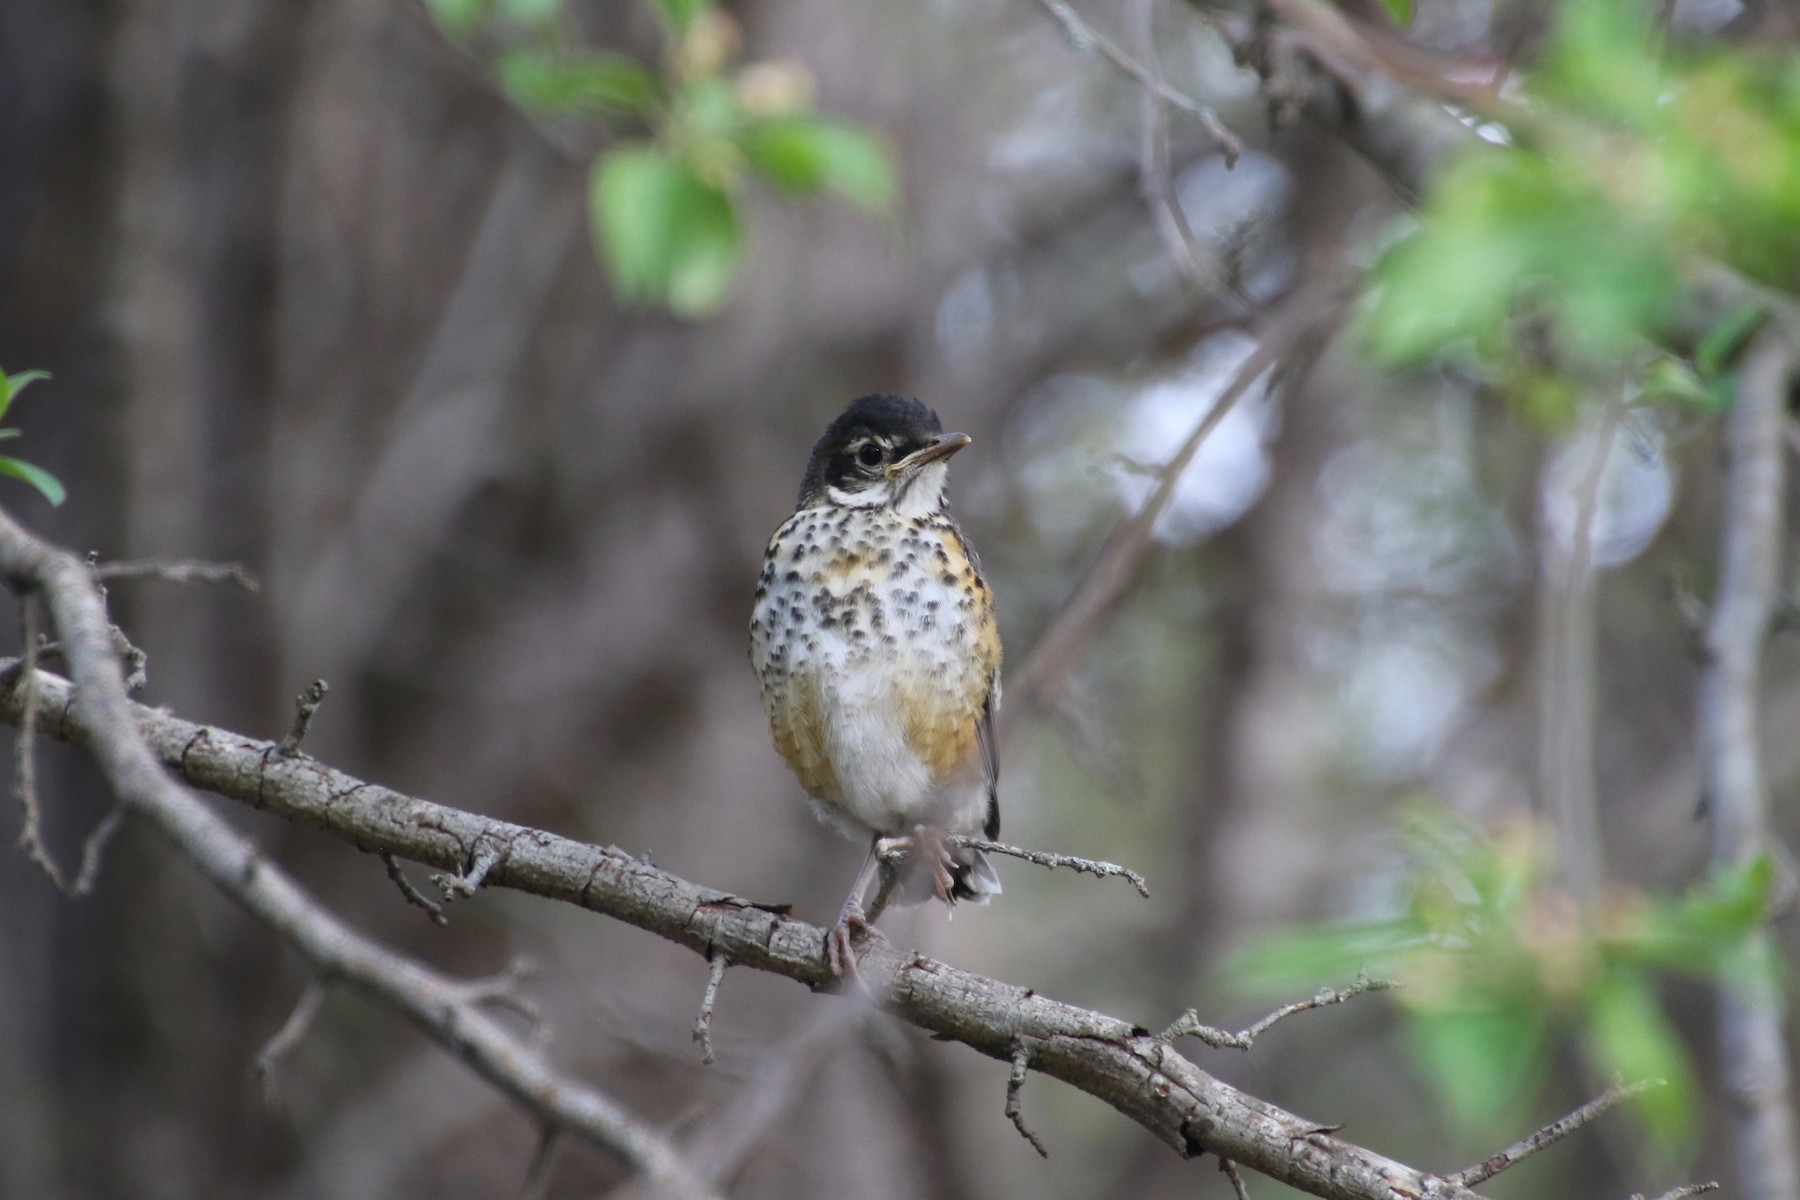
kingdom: Animalia
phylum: Chordata
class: Aves
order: Passeriformes
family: Turdidae
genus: Turdus
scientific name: Turdus migratorius
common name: American robin
